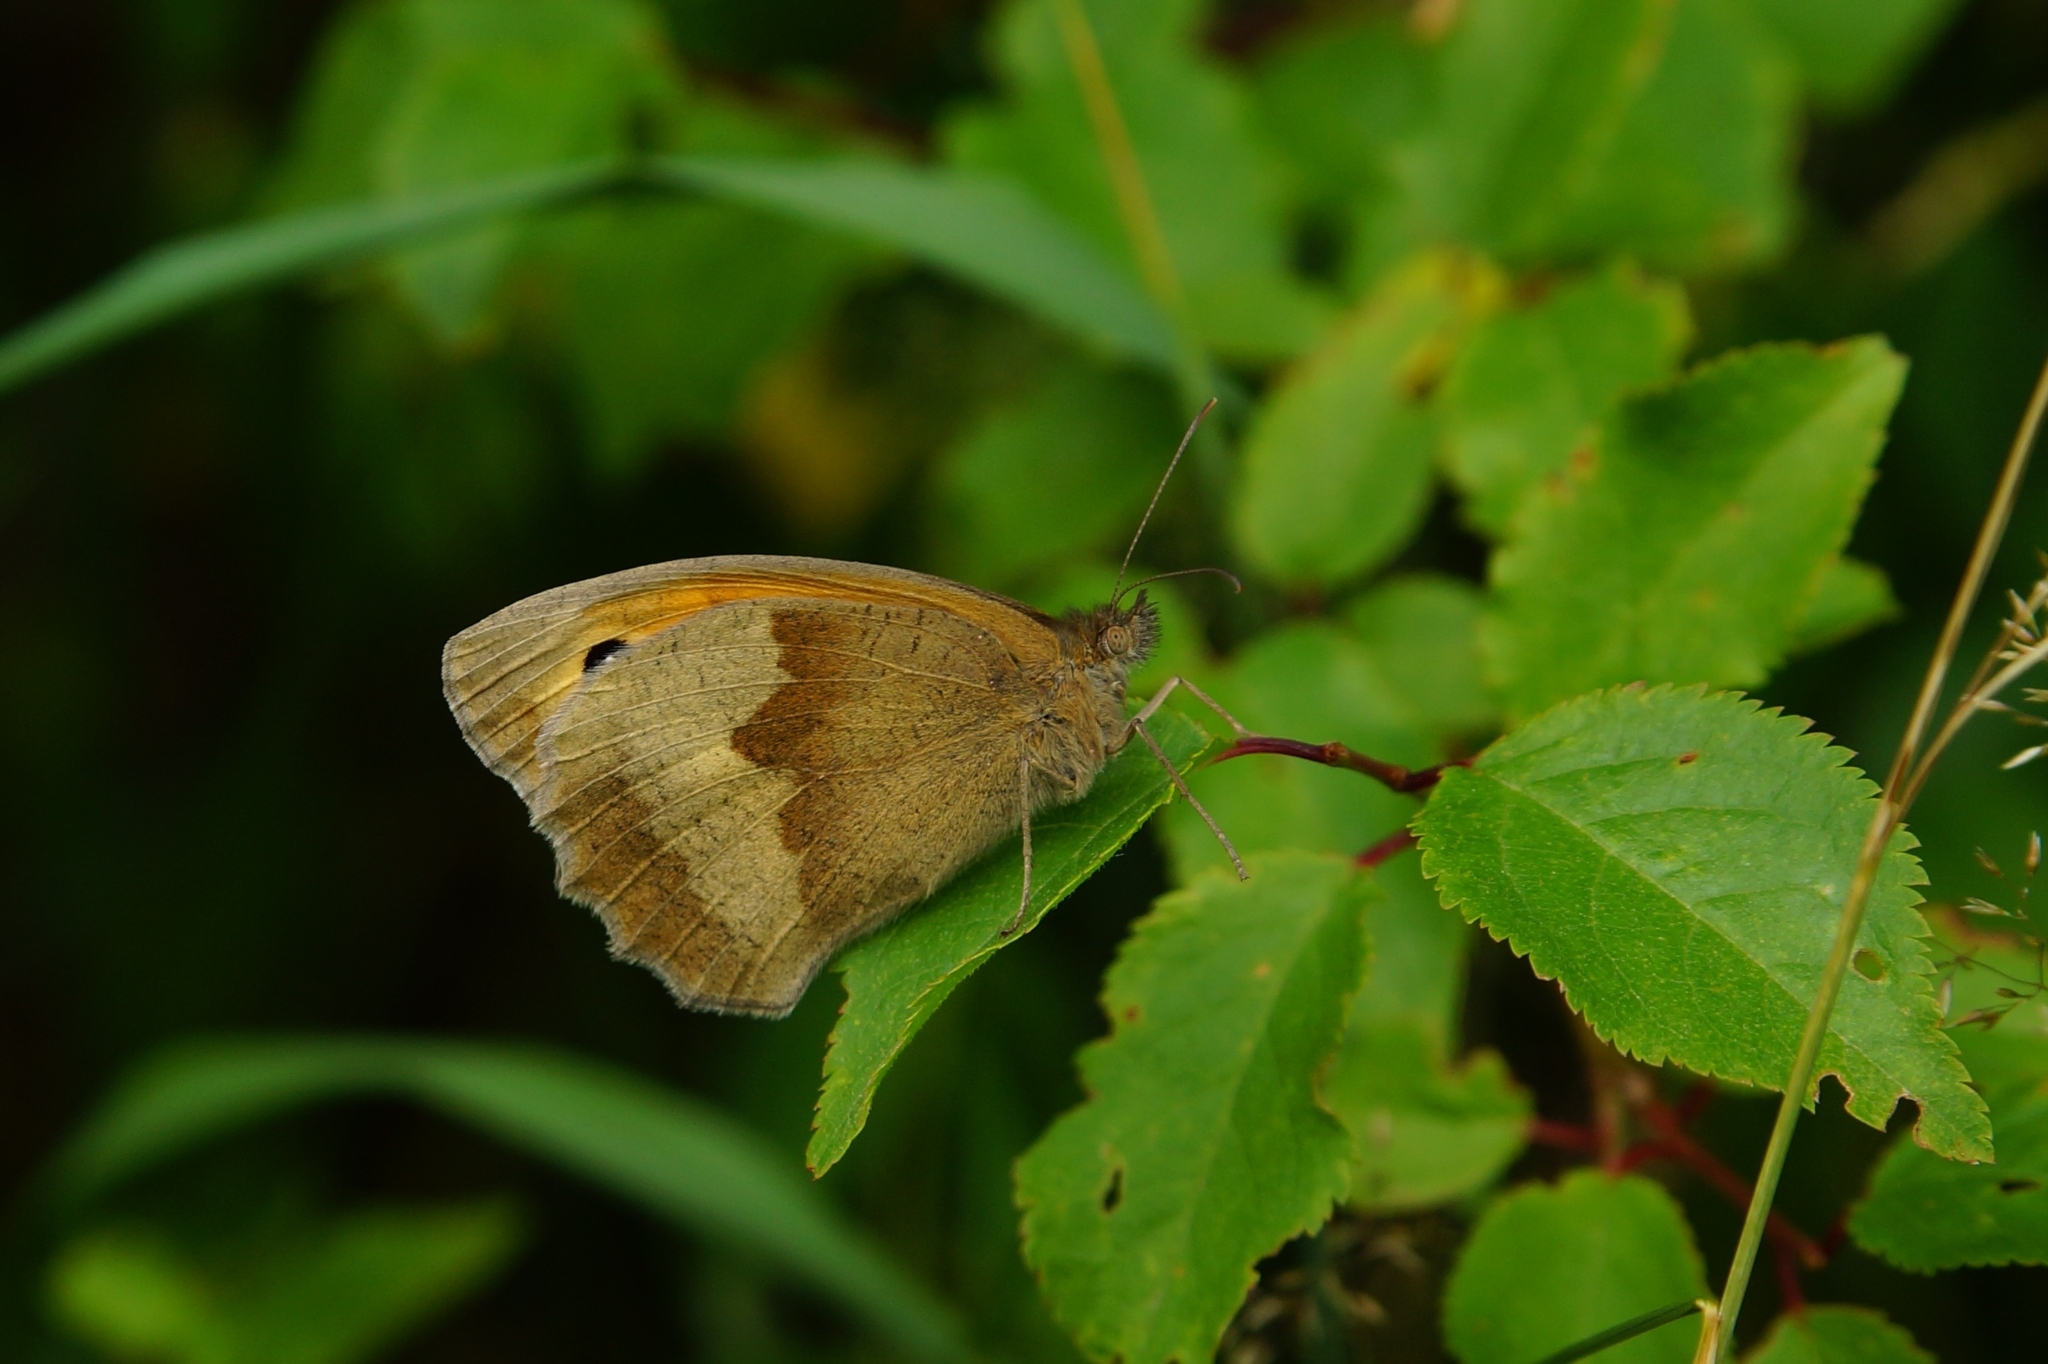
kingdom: Animalia
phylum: Arthropoda
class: Insecta
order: Lepidoptera
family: Nymphalidae
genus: Maniola
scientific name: Maniola jurtina
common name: Meadow brown
